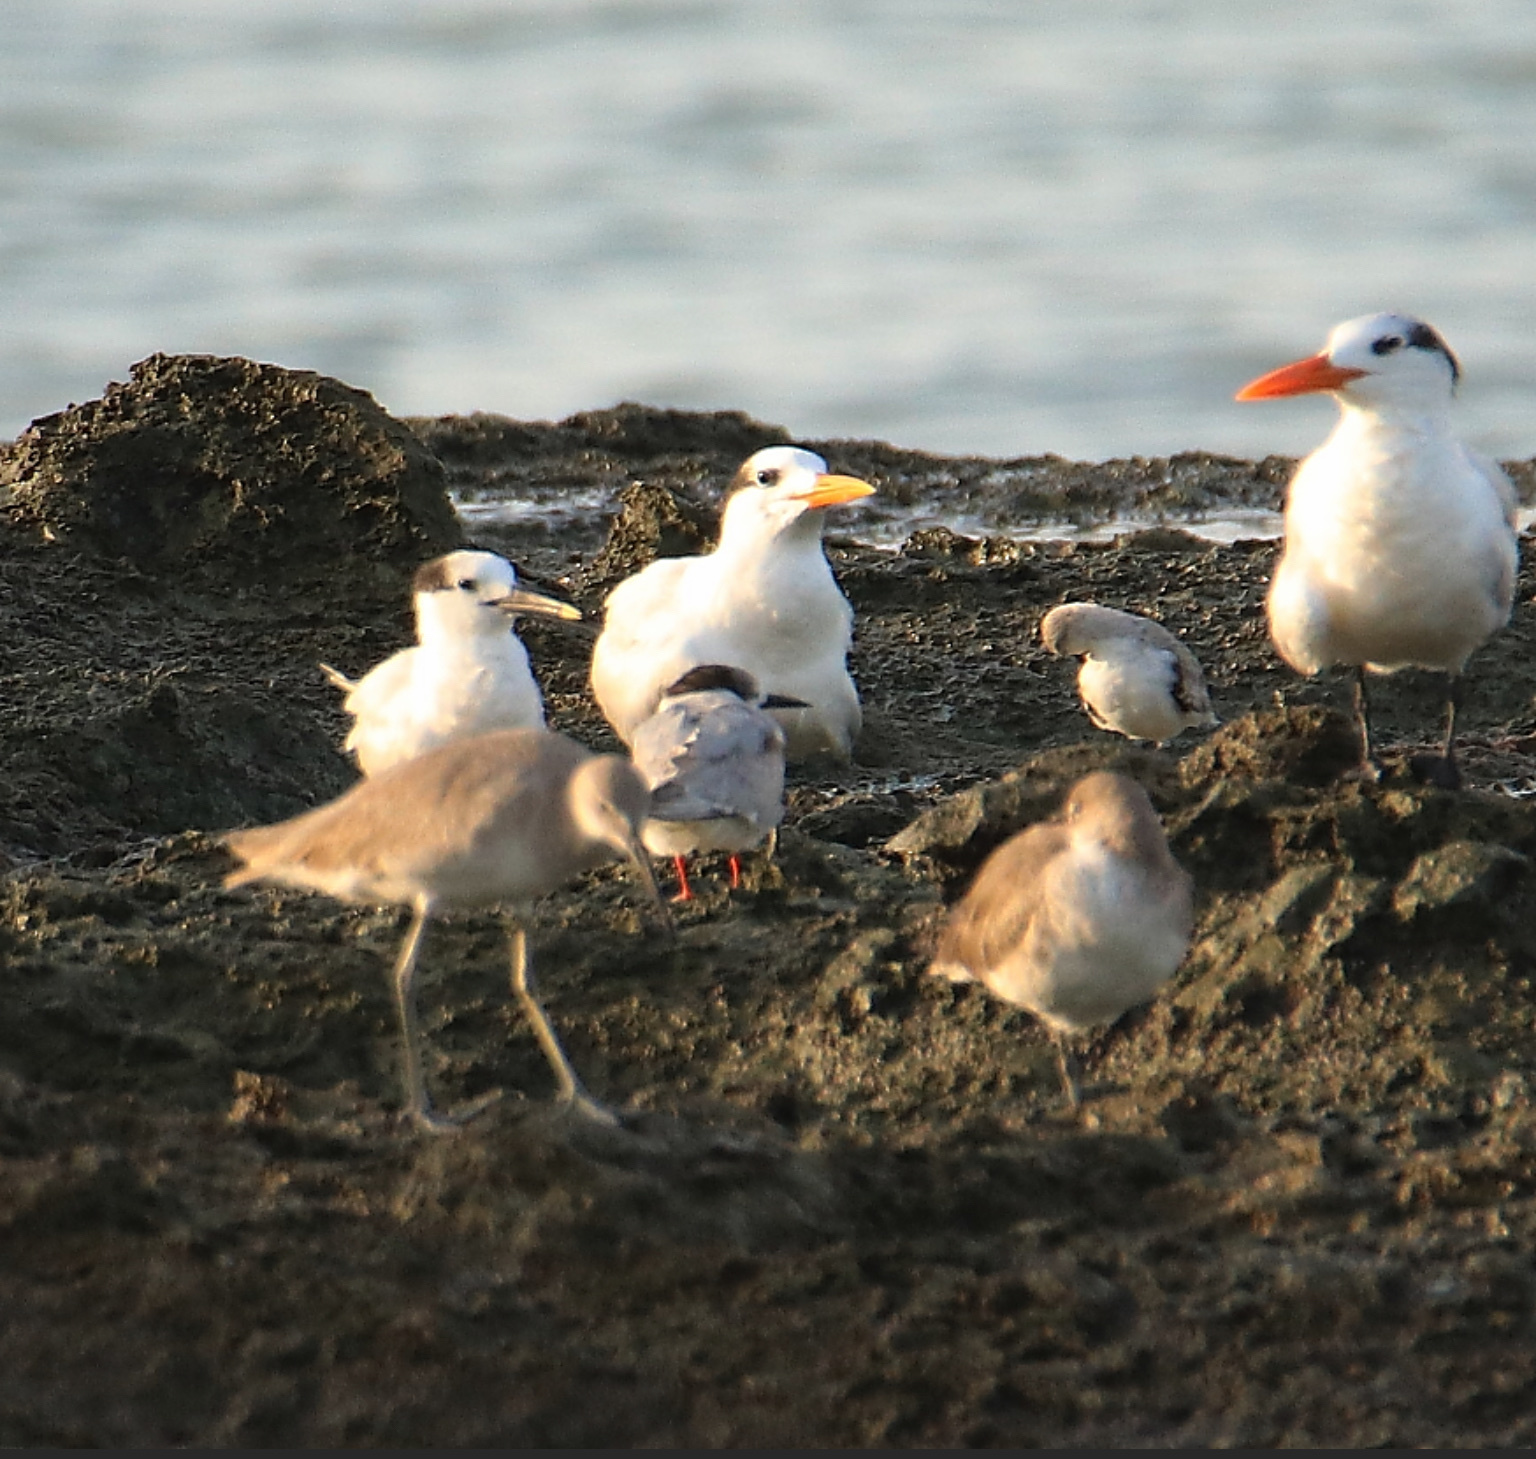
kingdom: Animalia
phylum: Chordata
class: Aves
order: Charadriiformes
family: Laridae
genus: Sterna
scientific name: Sterna hirundo
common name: Common tern
